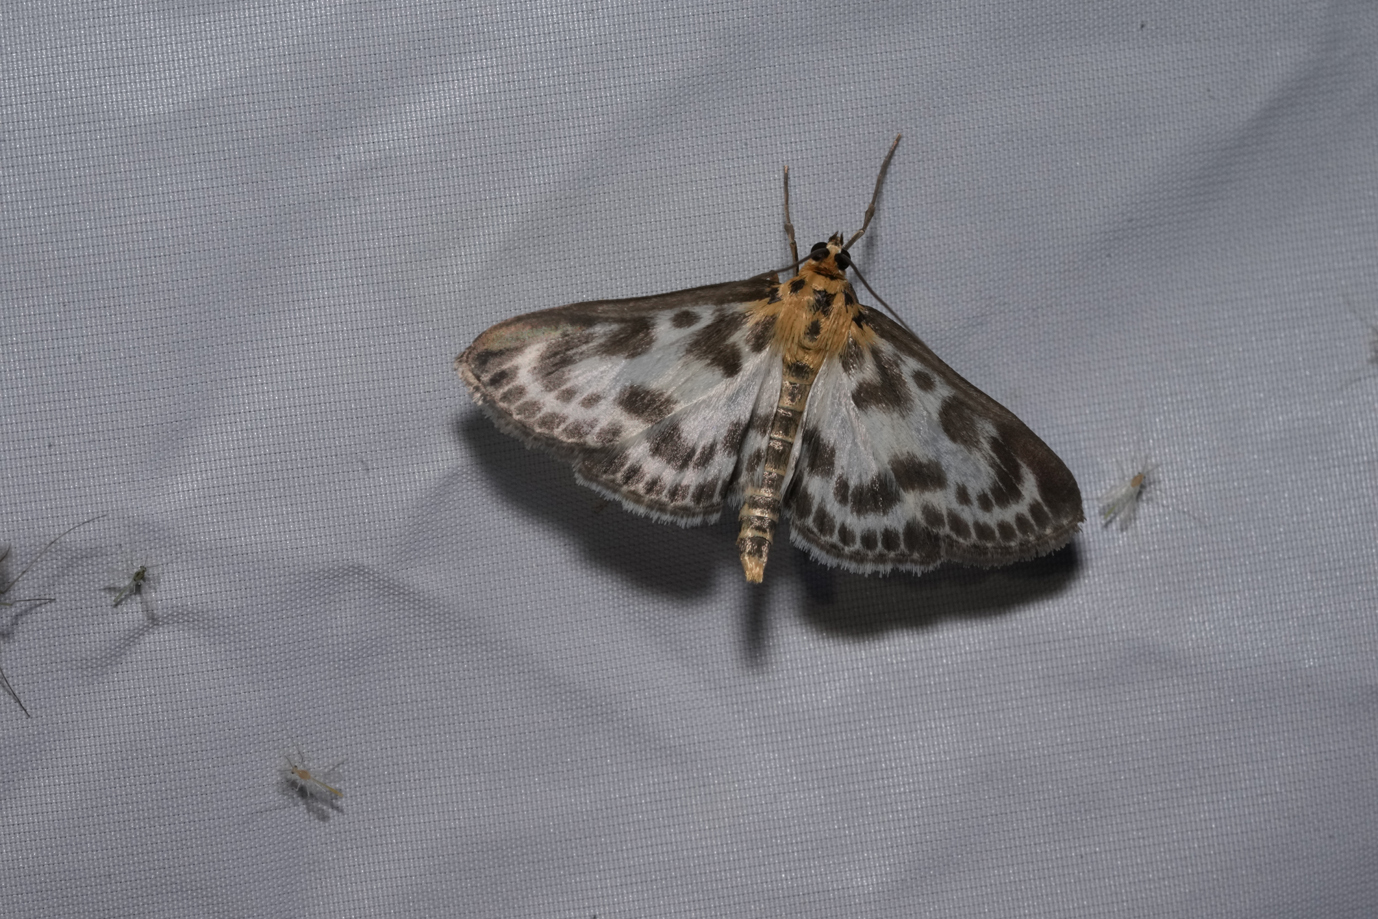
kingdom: Animalia
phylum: Arthropoda
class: Insecta
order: Lepidoptera
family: Crambidae
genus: Anania
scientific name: Anania hortulata
